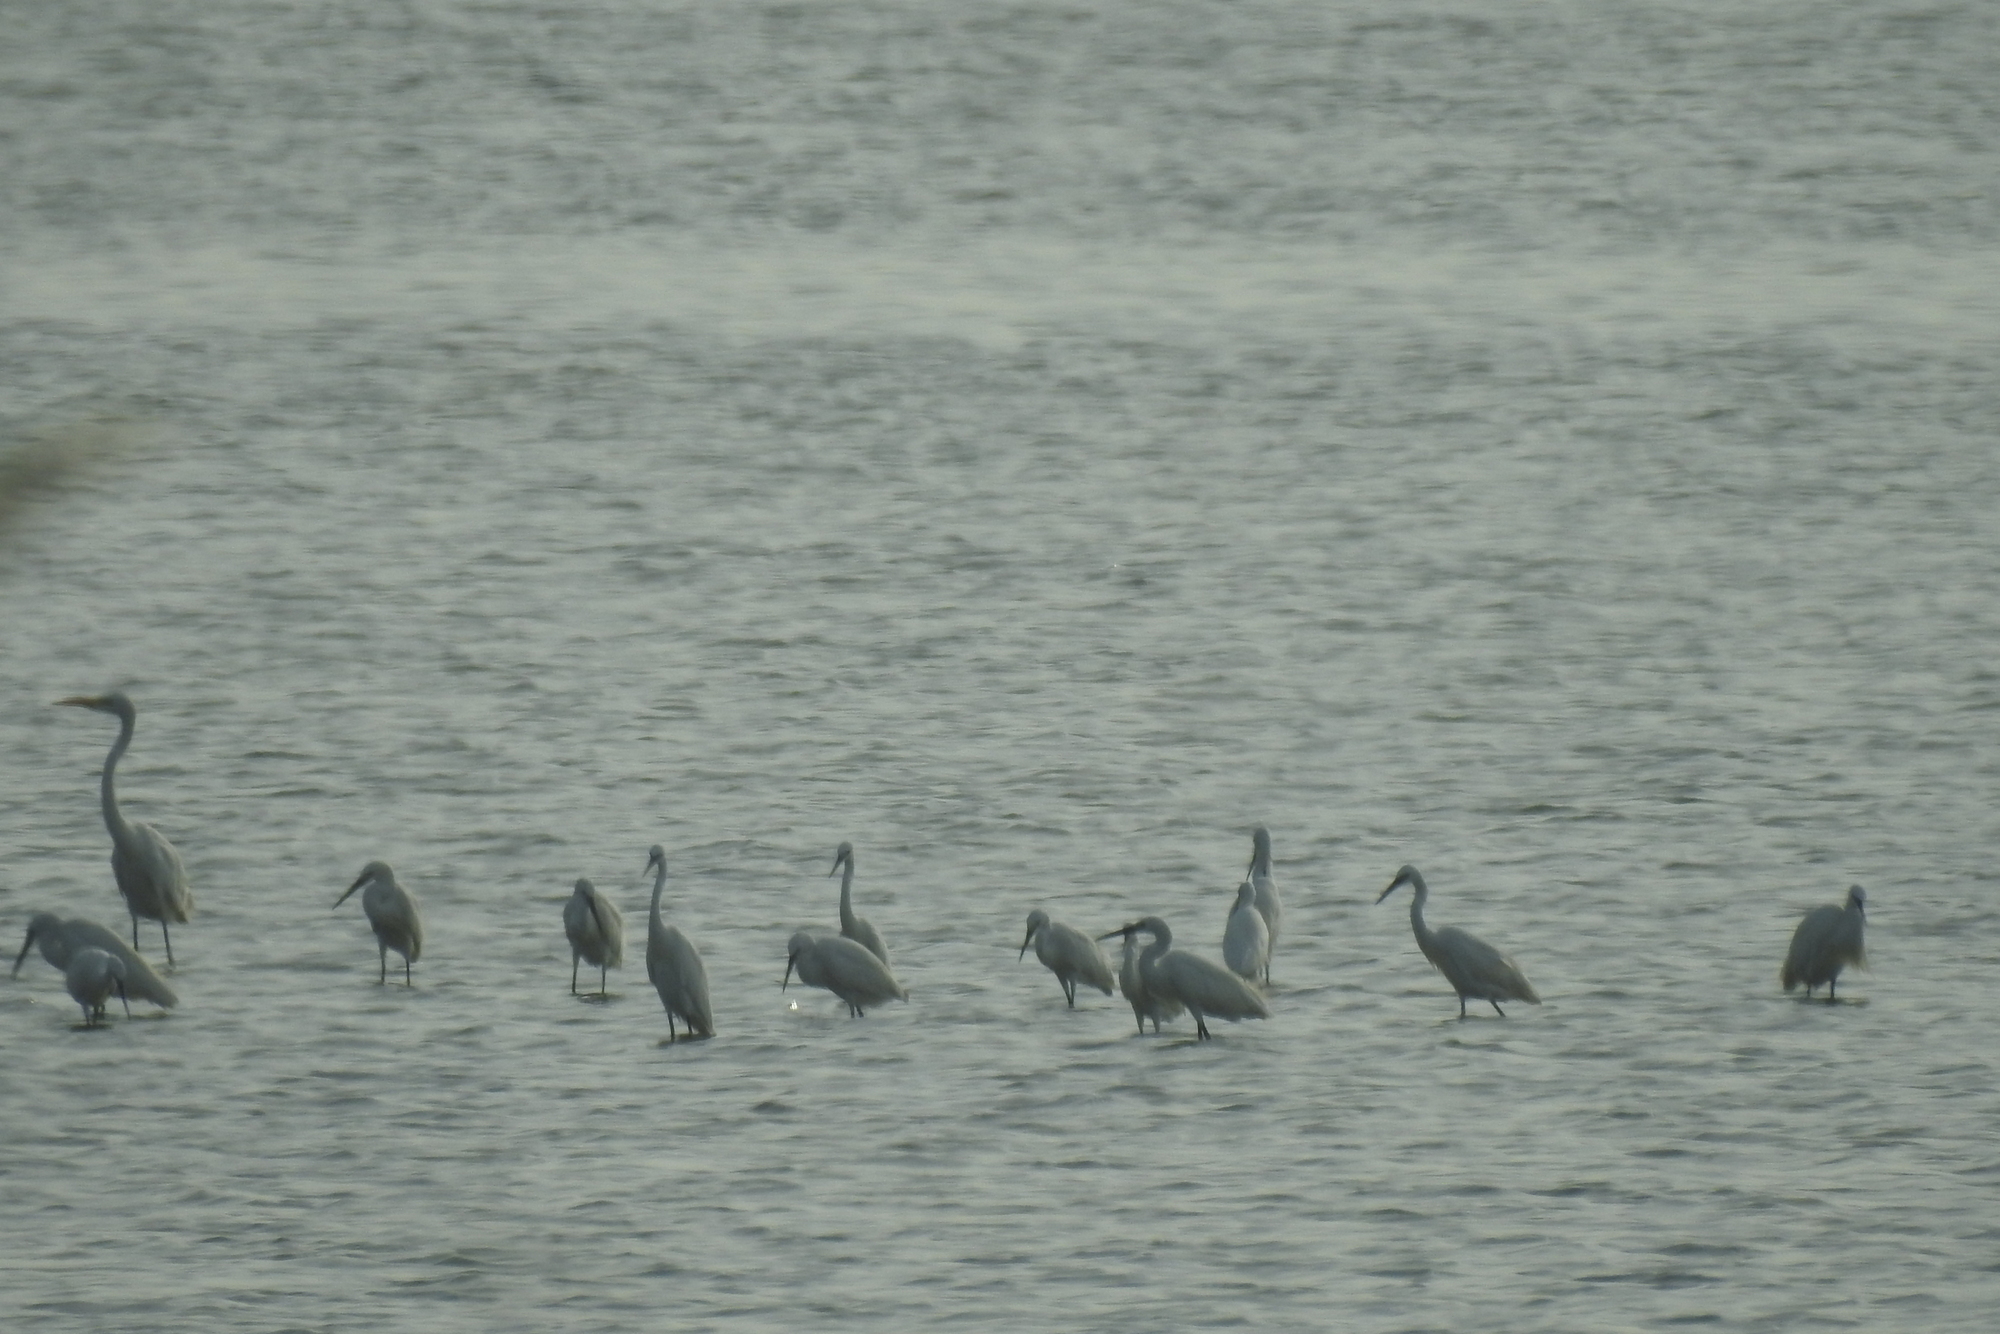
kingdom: Animalia
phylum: Chordata
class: Aves
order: Pelecaniformes
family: Ardeidae
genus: Egretta
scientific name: Egretta garzetta
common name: Little egret
